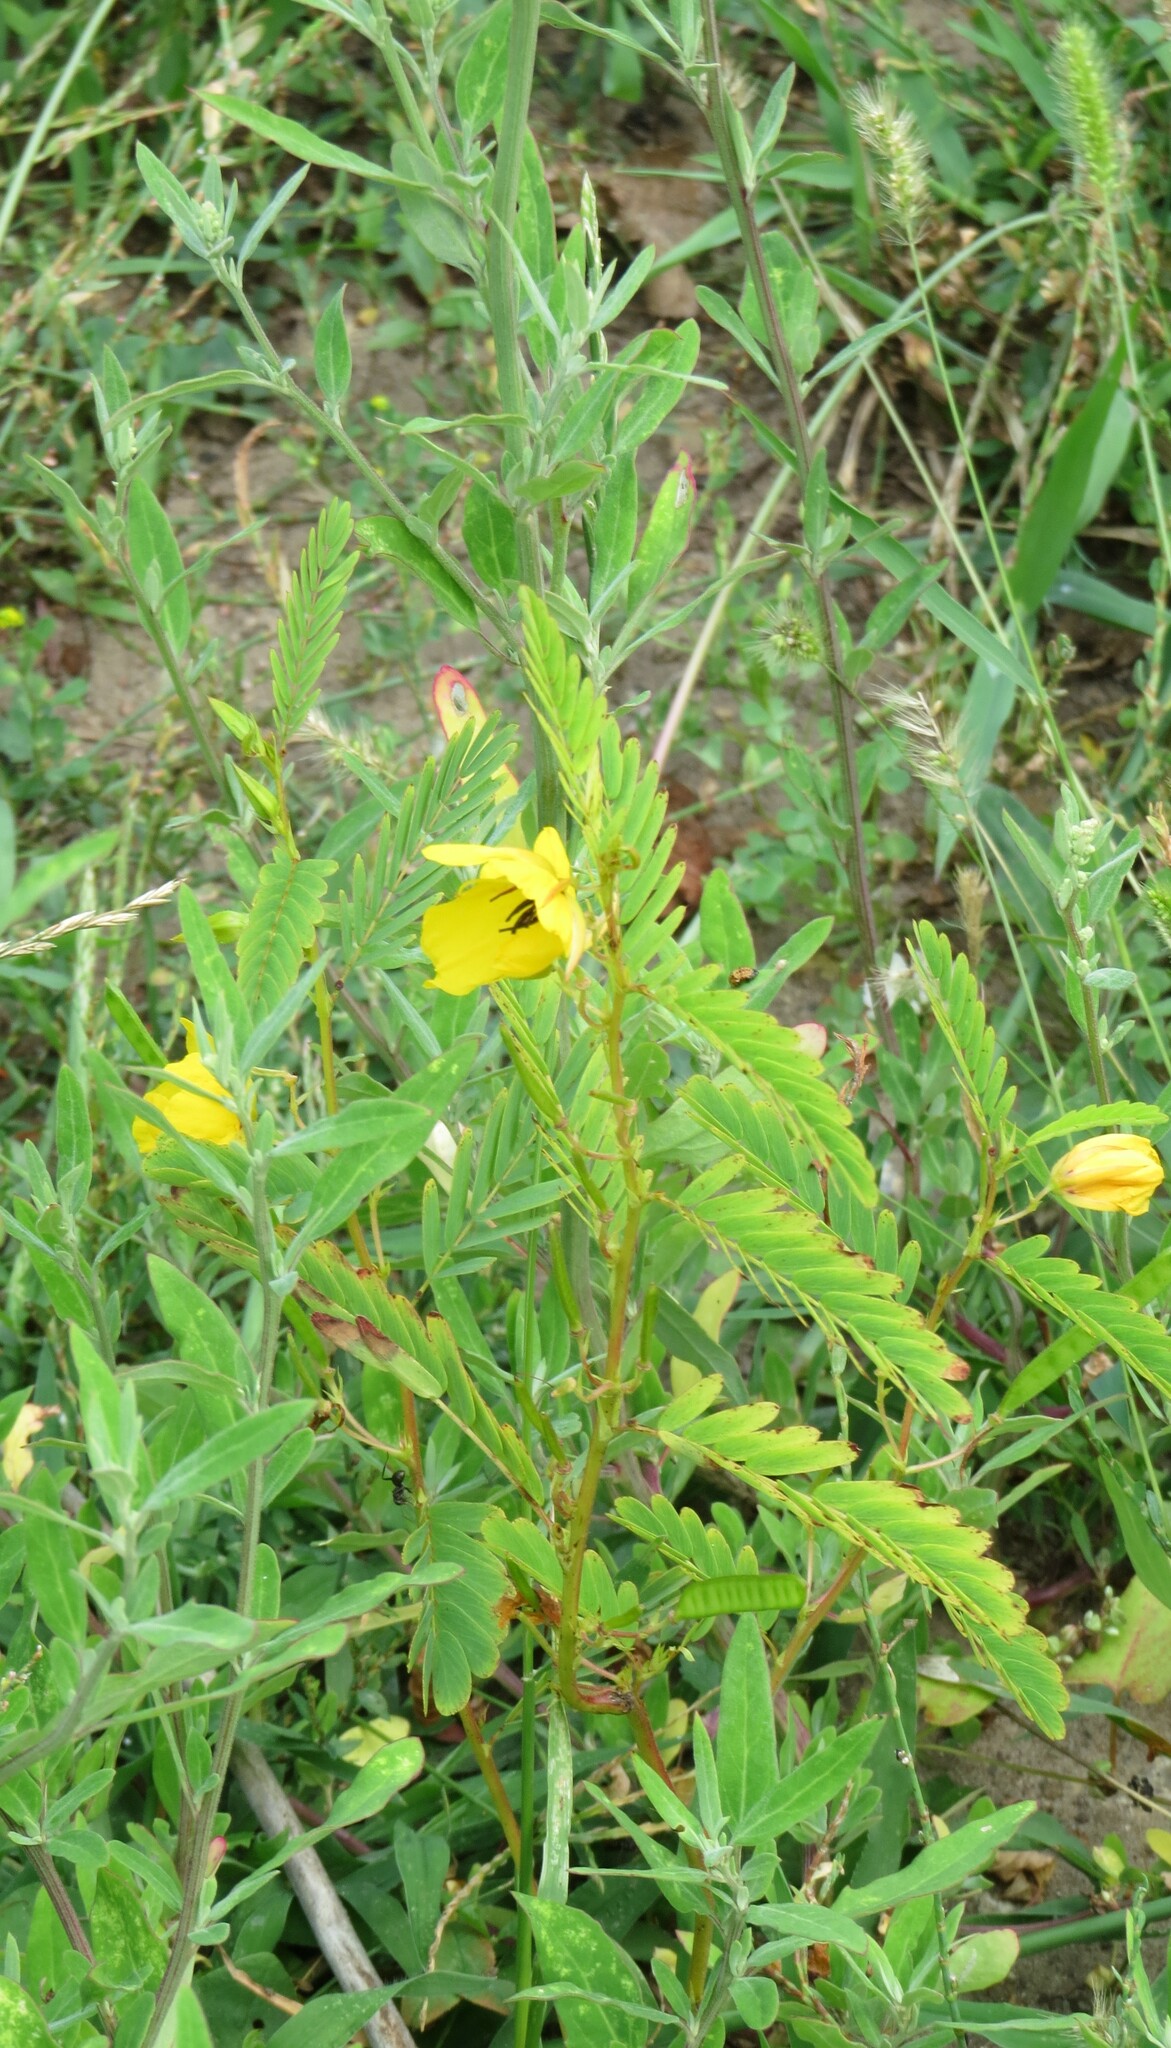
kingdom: Plantae
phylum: Tracheophyta
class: Magnoliopsida
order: Fabales
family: Fabaceae
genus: Chamaecrista
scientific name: Chamaecrista fasciculata
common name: Golden cassia
